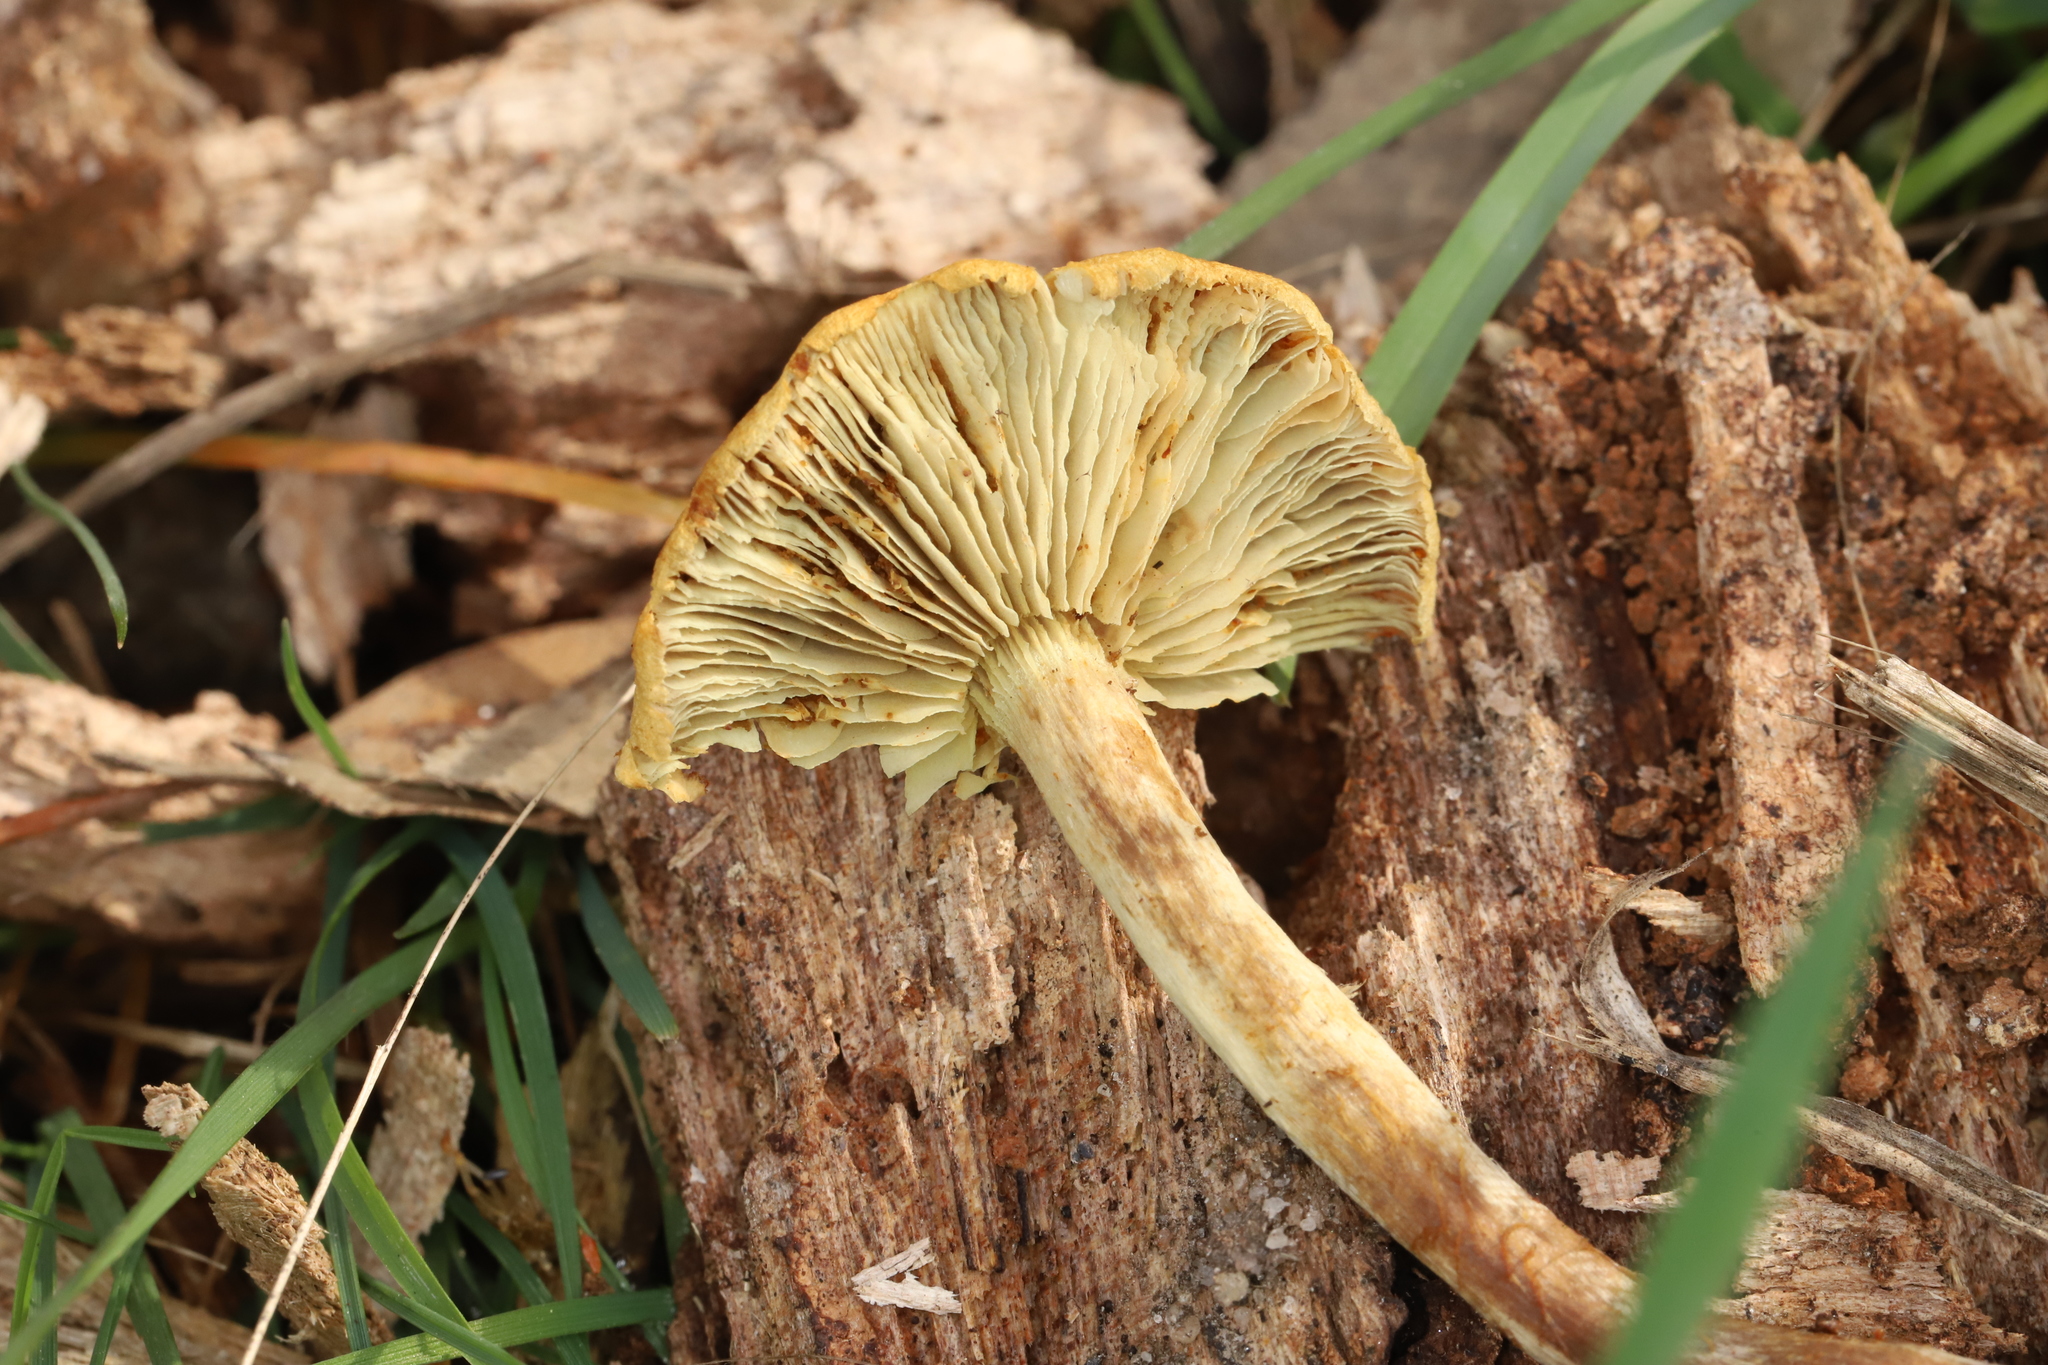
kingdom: Fungi
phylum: Basidiomycota
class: Agaricomycetes
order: Agaricales
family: Strophariaceae
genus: Hypholoma
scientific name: Hypholoma fasciculare
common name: Sulphur tuft
